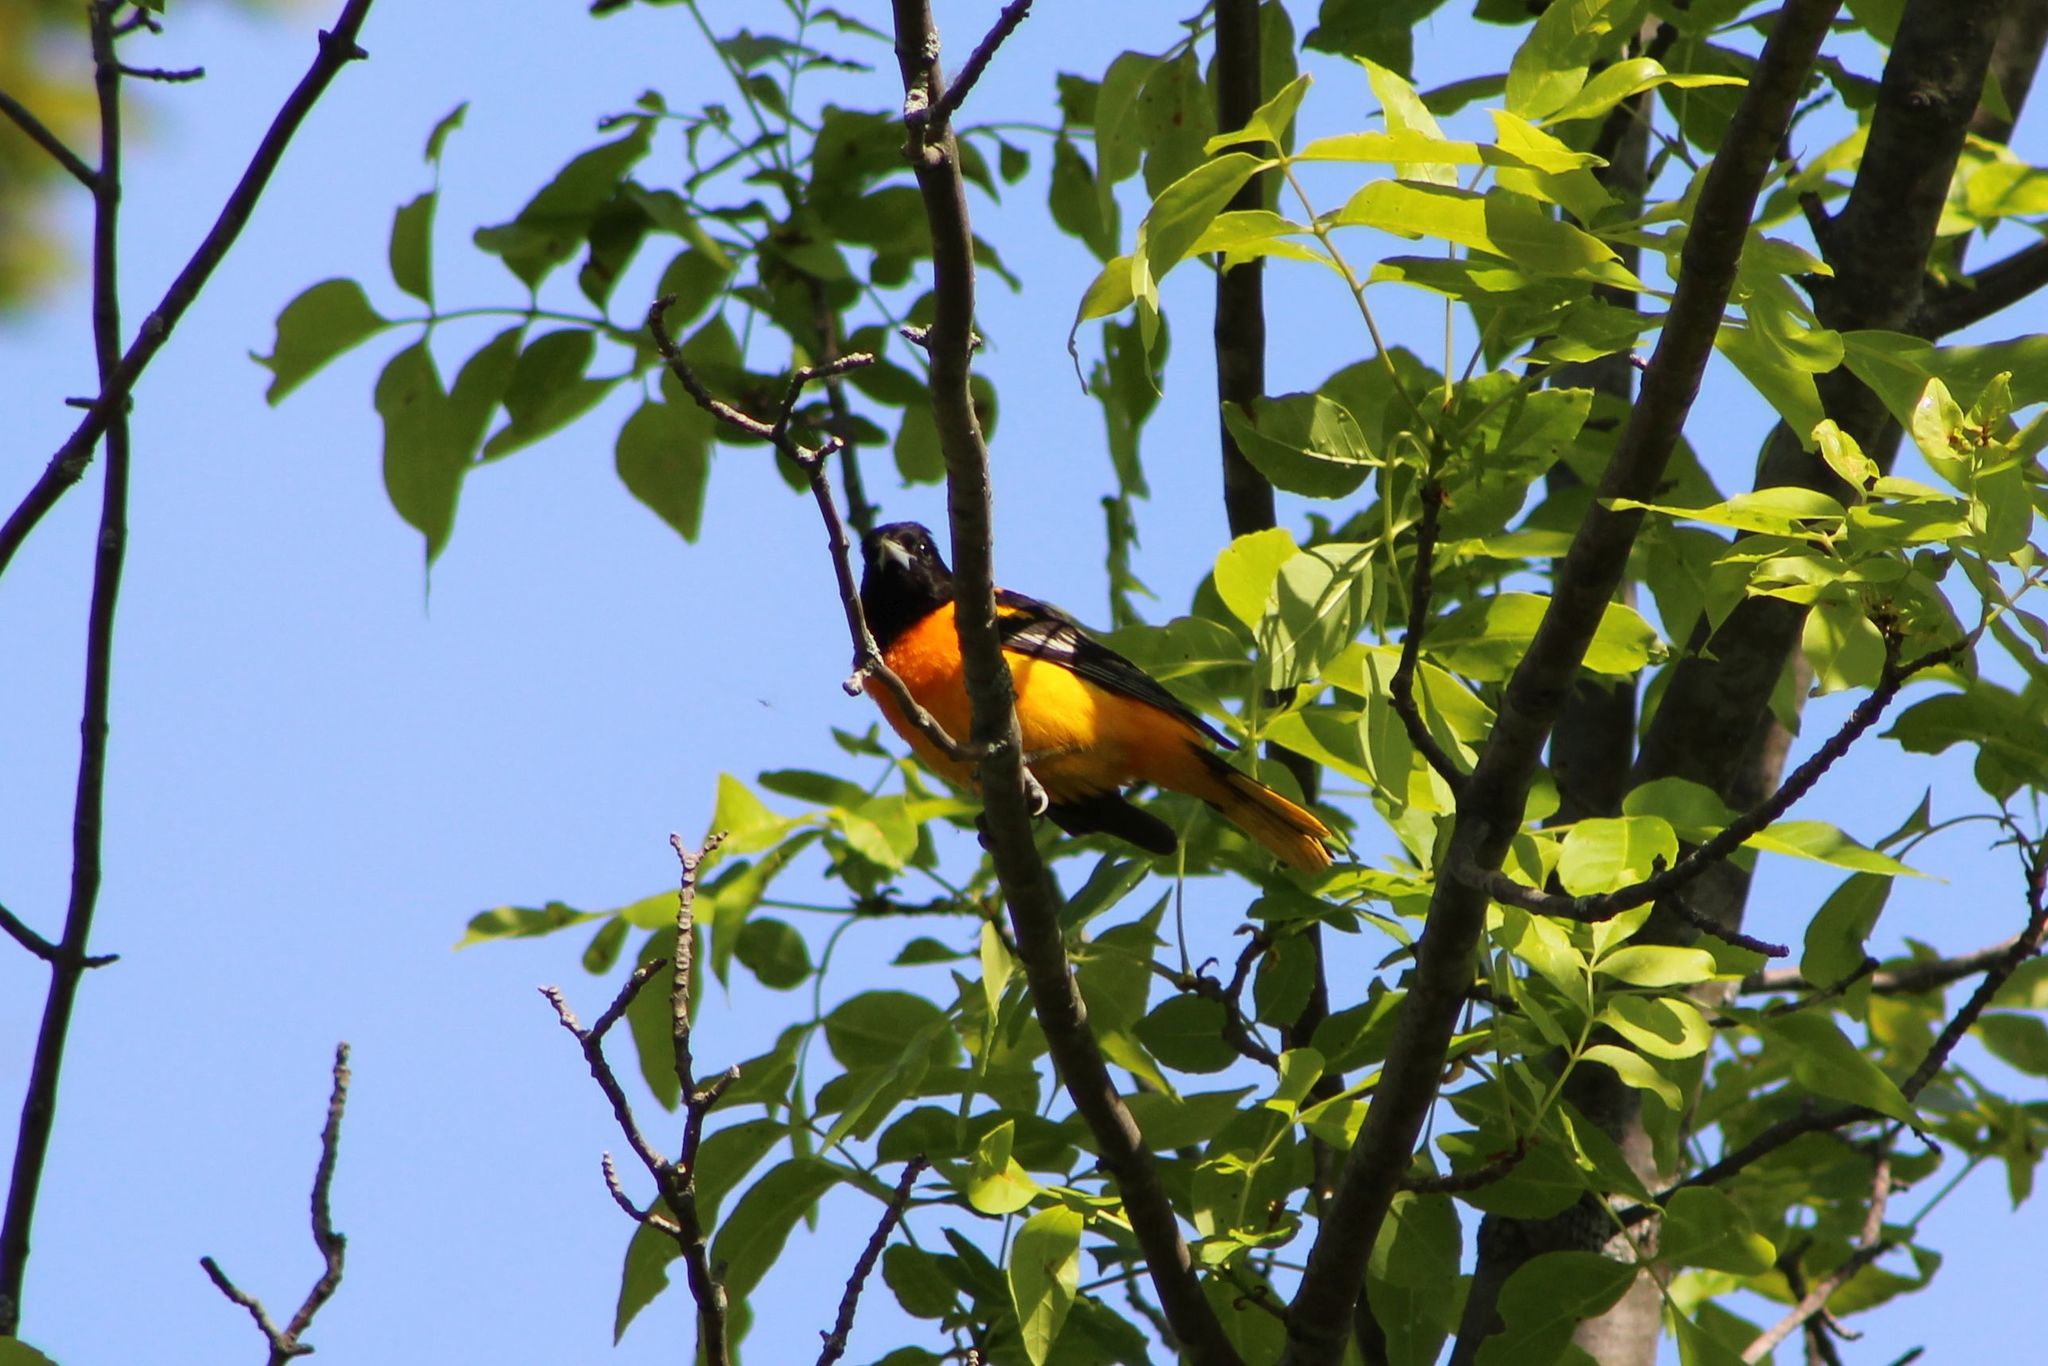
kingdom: Animalia
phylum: Chordata
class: Aves
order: Passeriformes
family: Icteridae
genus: Icterus
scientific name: Icterus galbula
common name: Baltimore oriole
